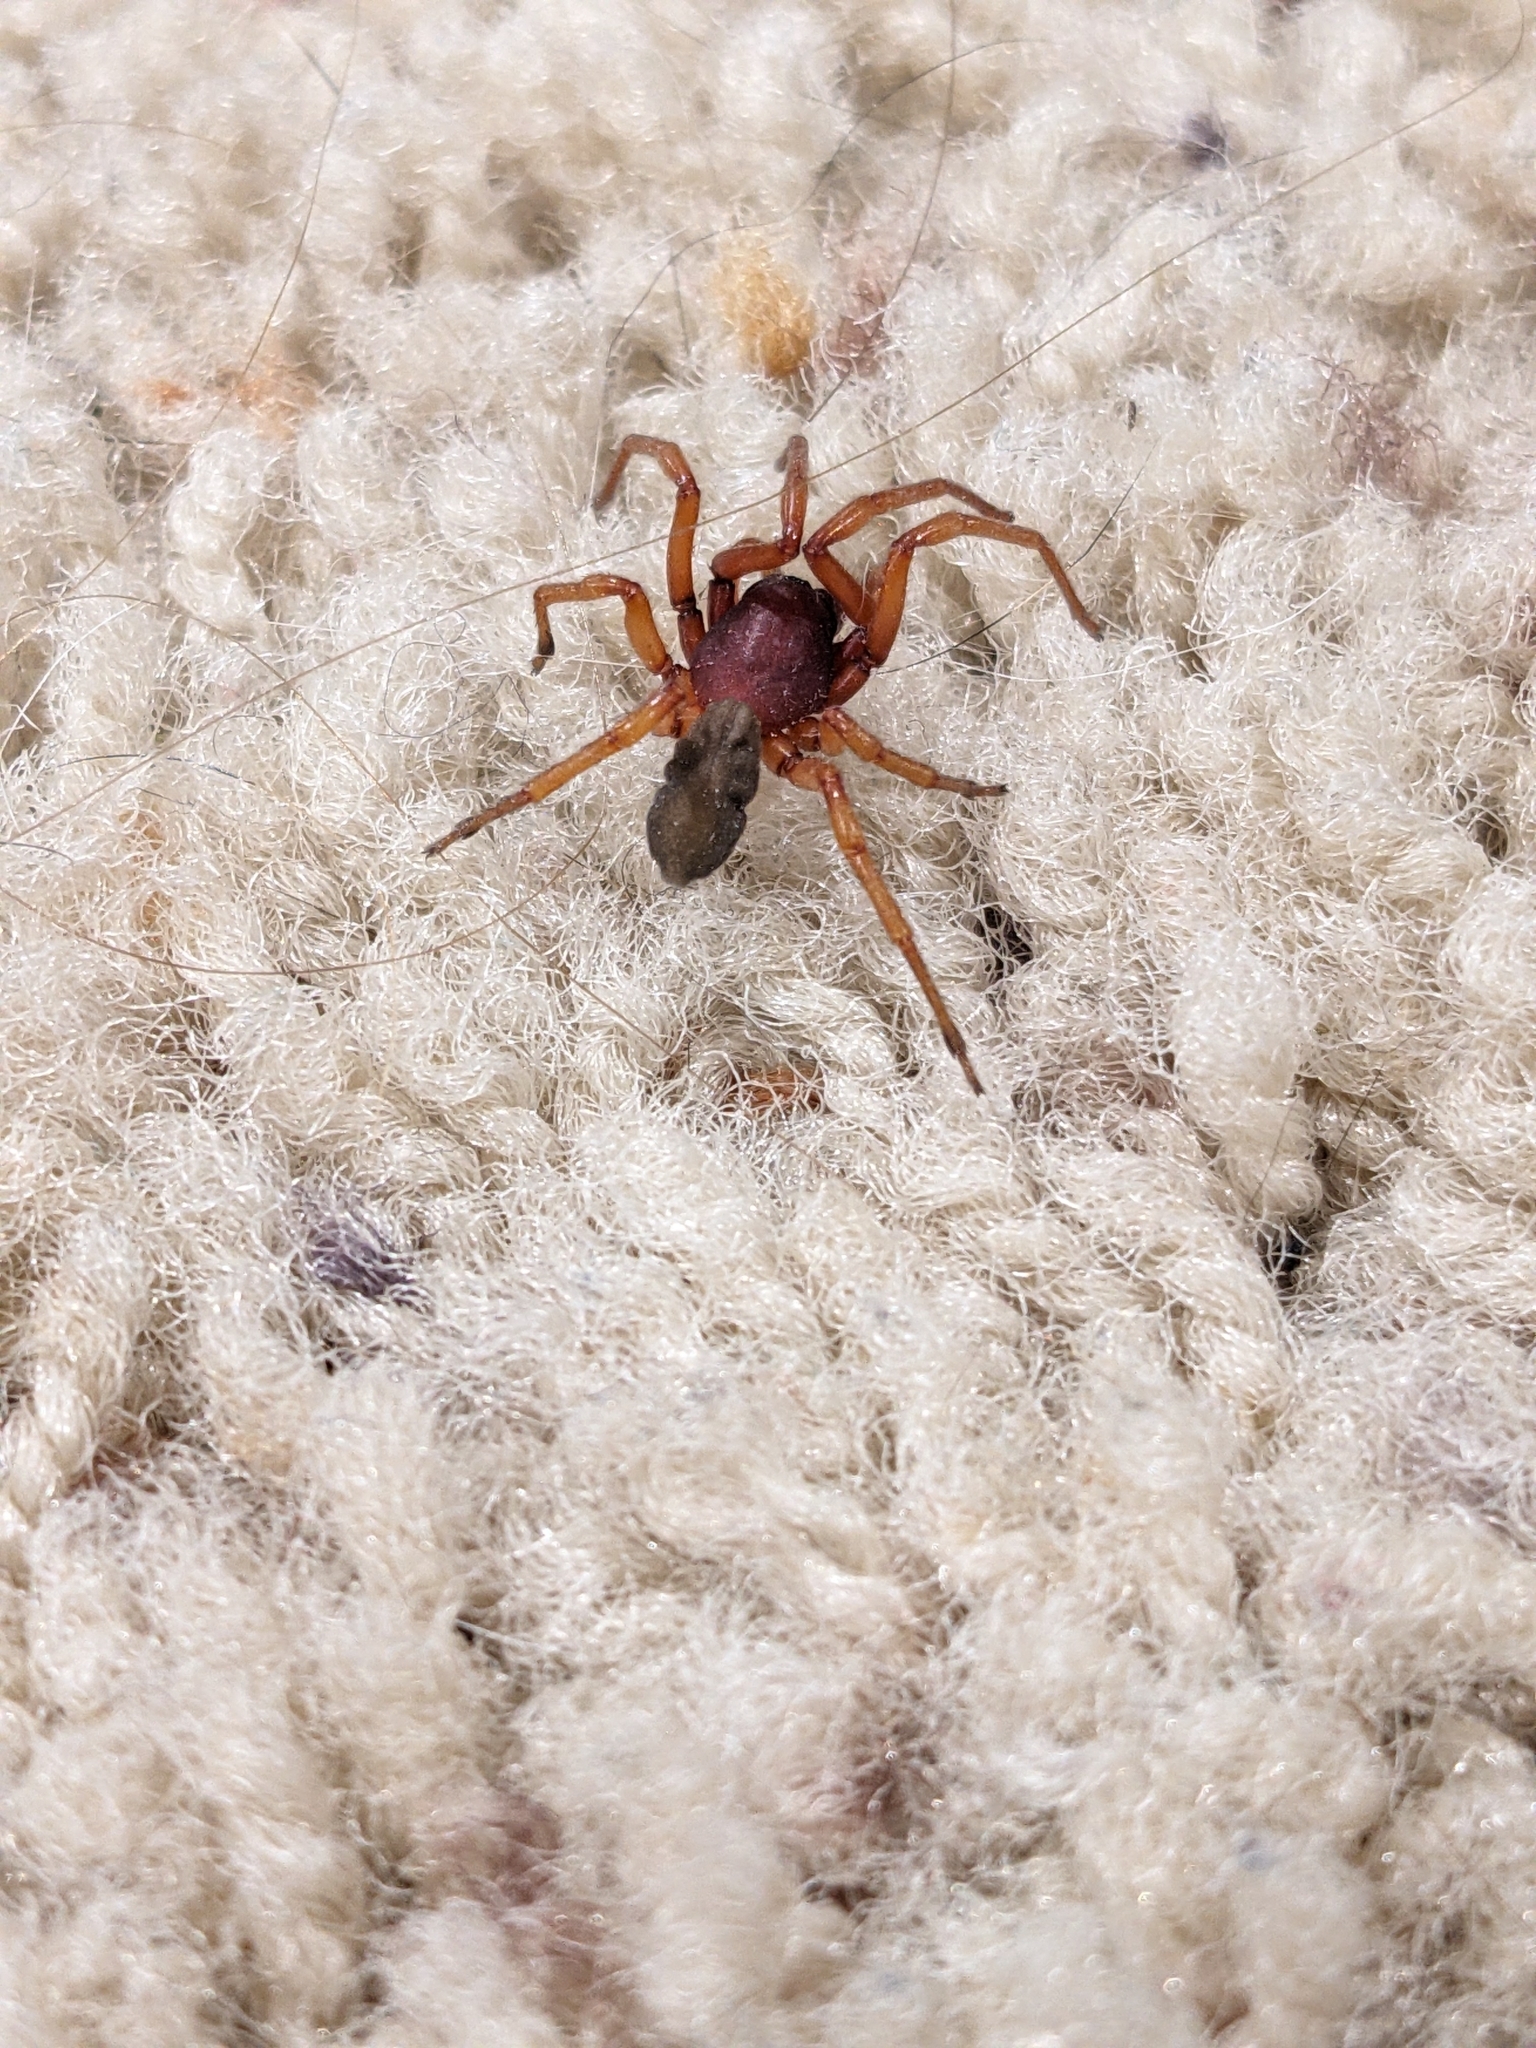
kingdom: Animalia
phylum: Arthropoda
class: Arachnida
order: Araneae
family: Dysderidae
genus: Dysdera
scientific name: Dysdera crocata
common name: Woodlouse spider
